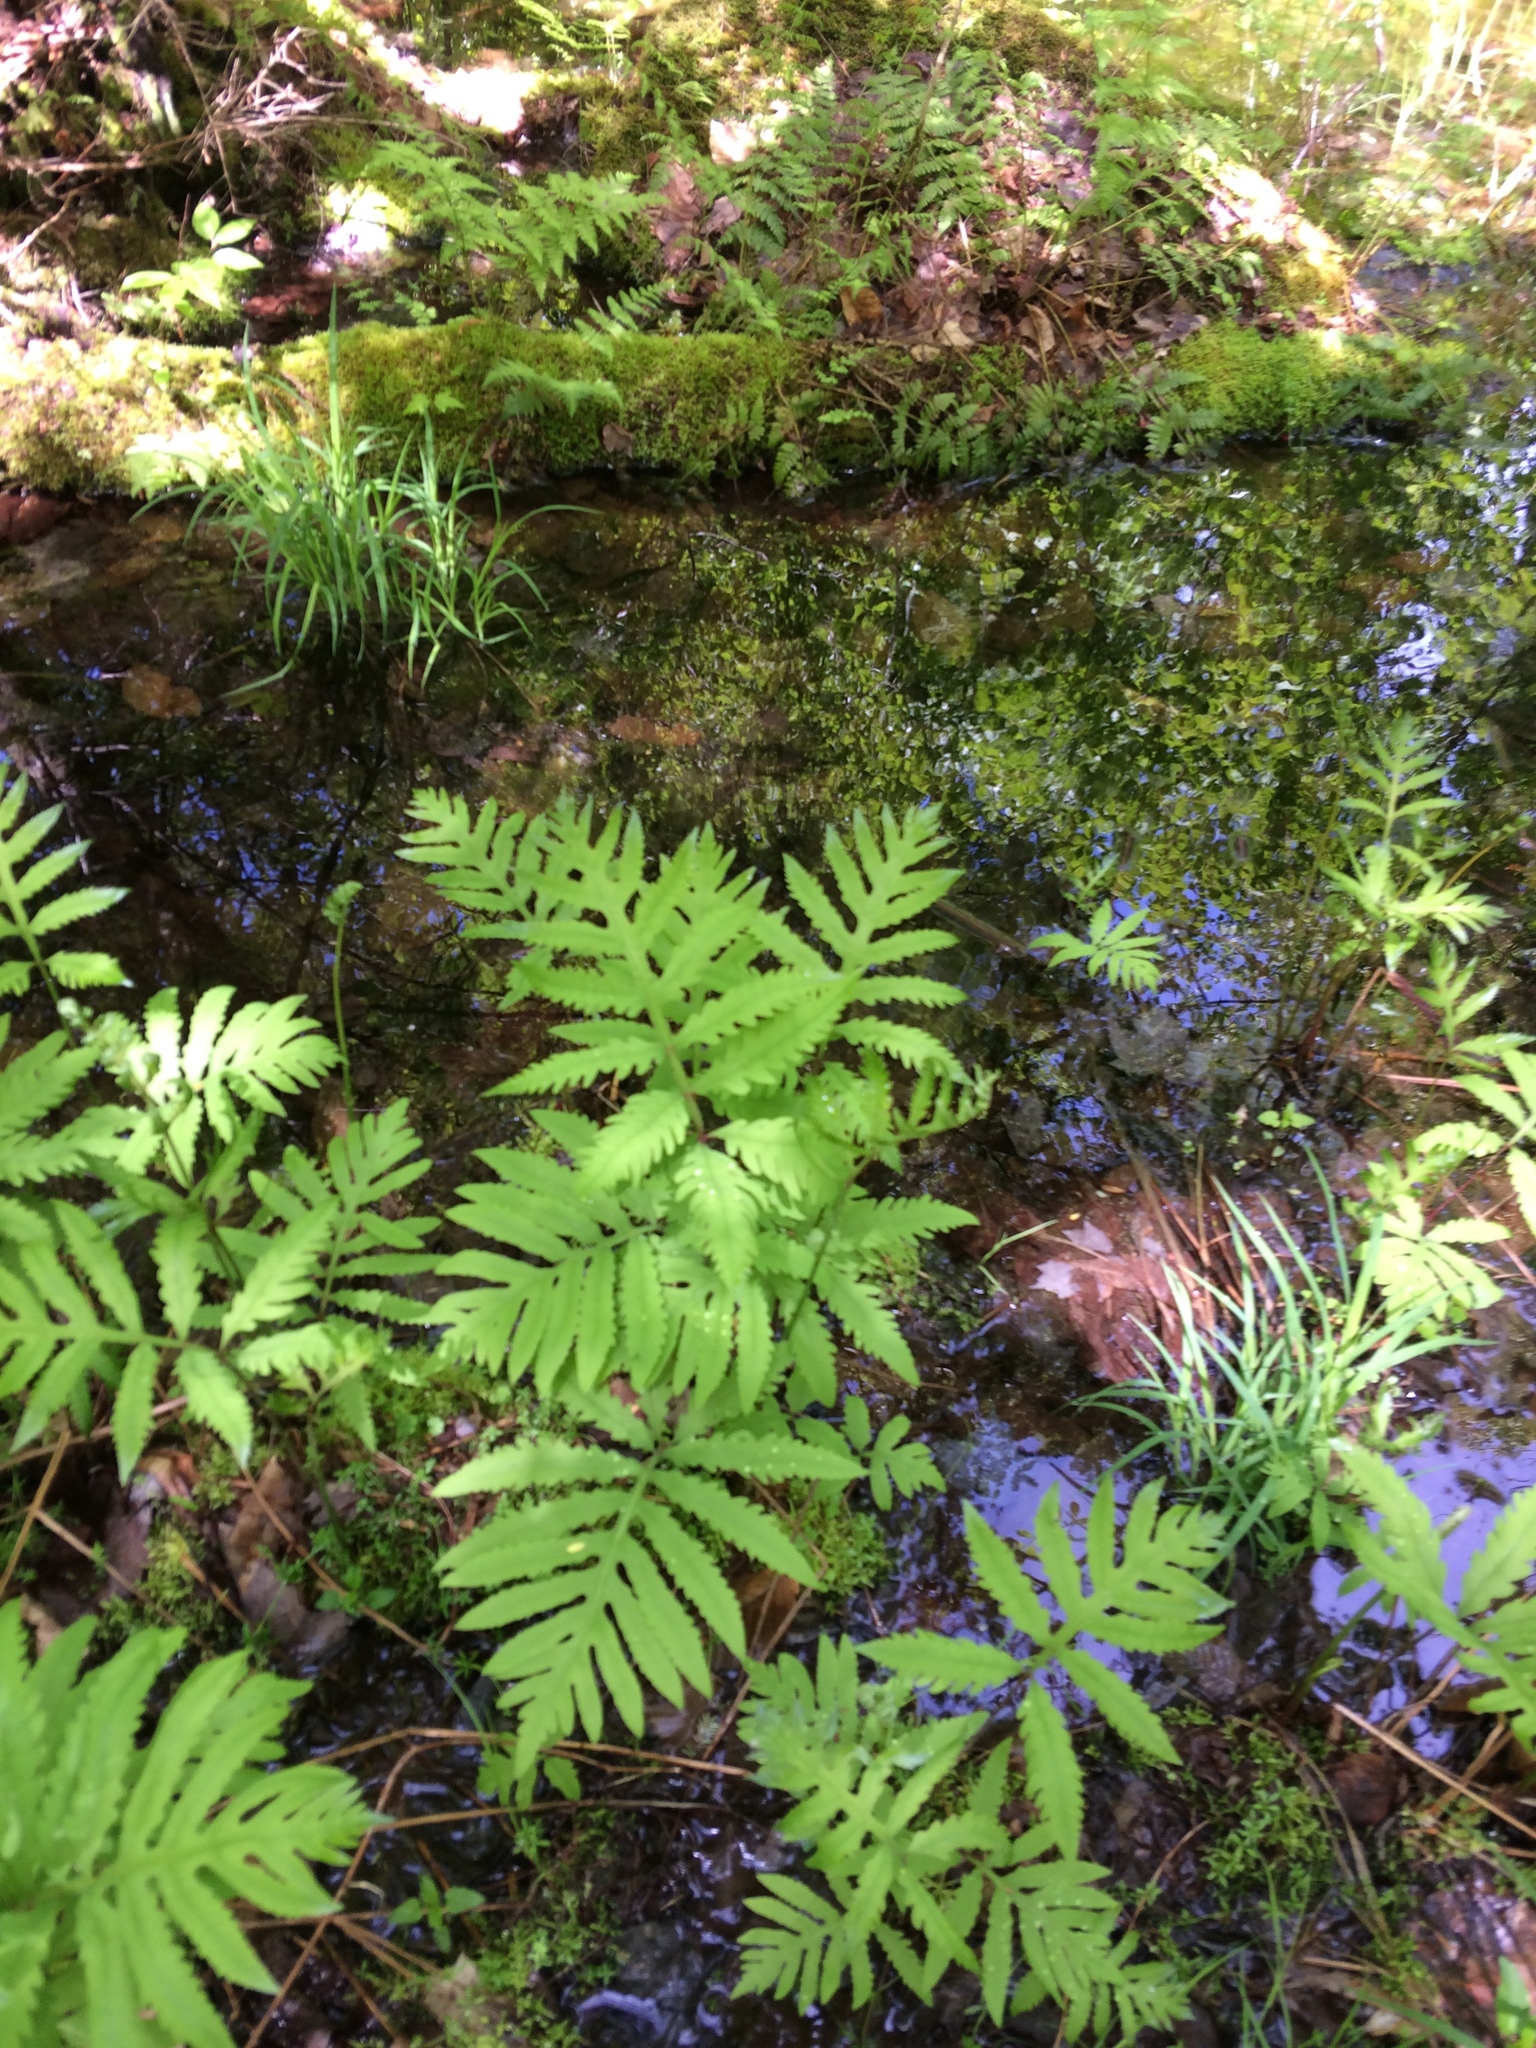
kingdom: Plantae
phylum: Tracheophyta
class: Polypodiopsida
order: Polypodiales
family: Onocleaceae
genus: Onoclea
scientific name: Onoclea sensibilis
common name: Sensitive fern
